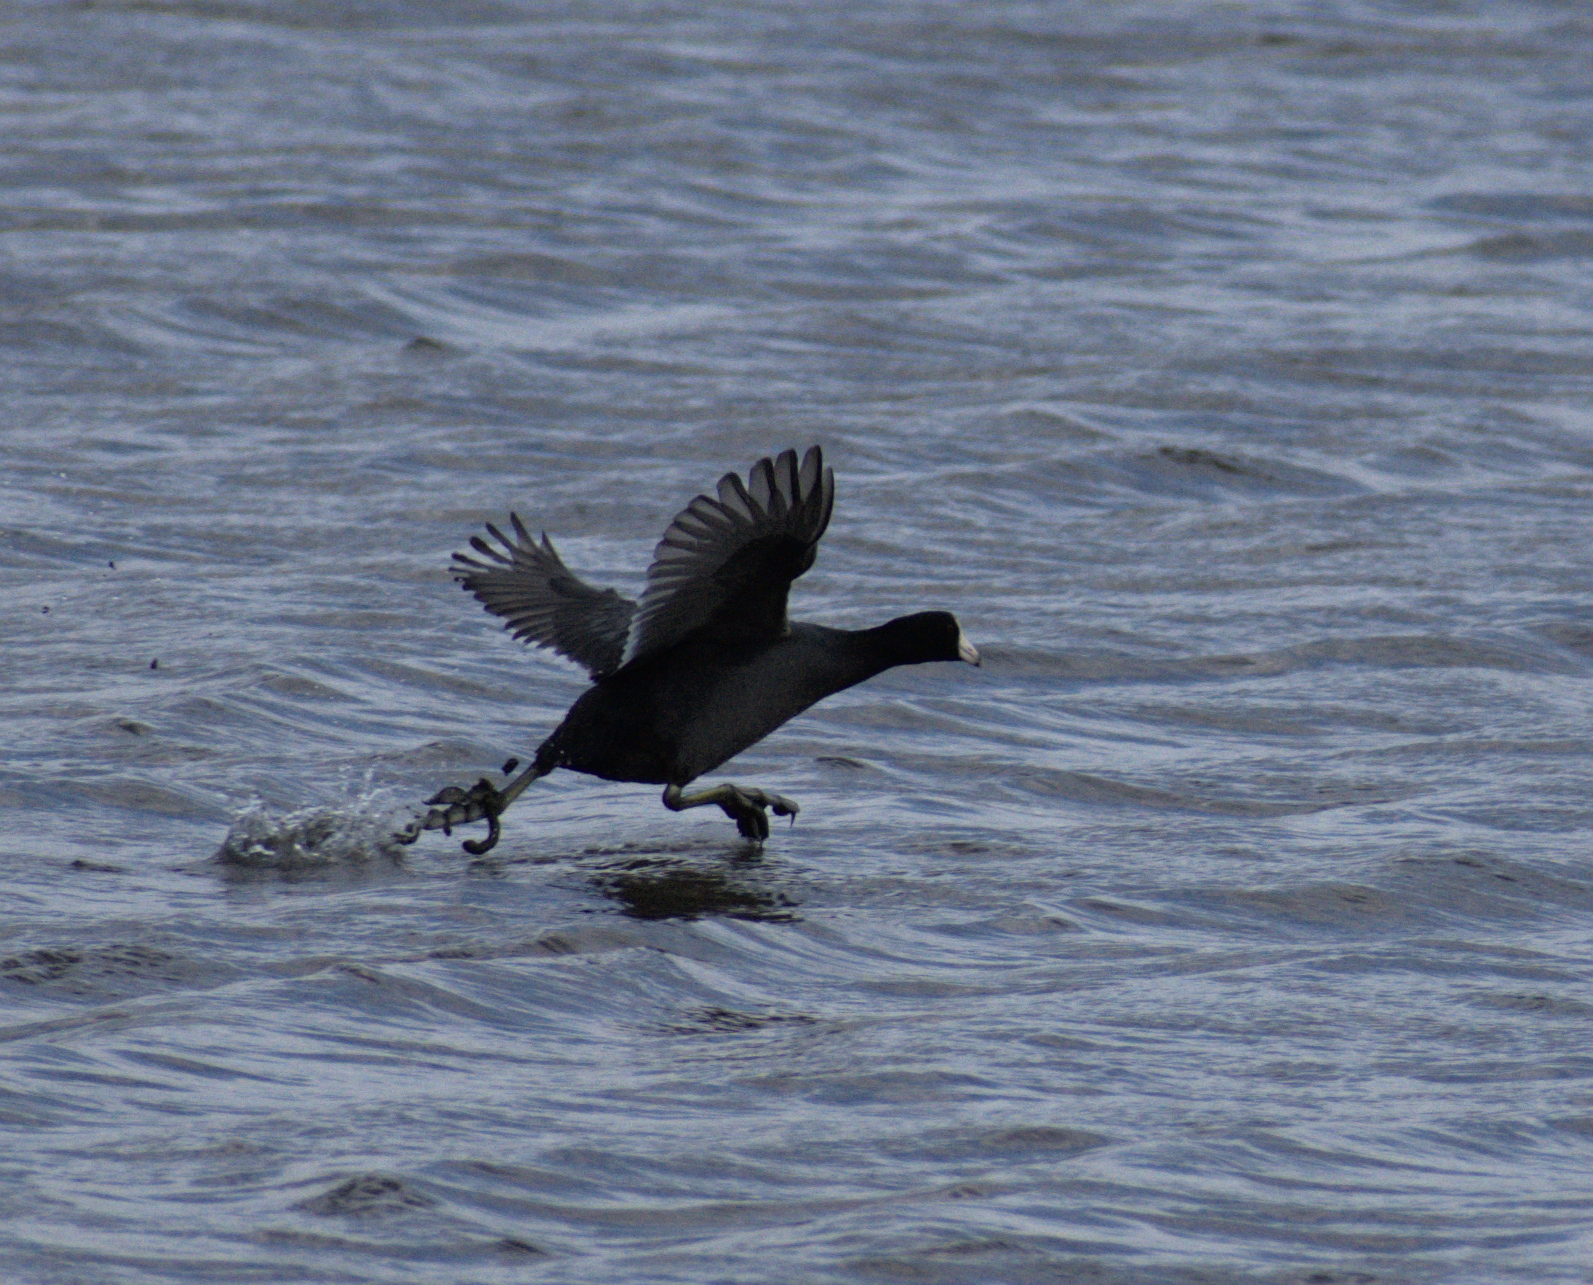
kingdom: Animalia
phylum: Chordata
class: Aves
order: Gruiformes
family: Rallidae
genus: Fulica
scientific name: Fulica americana
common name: American coot
